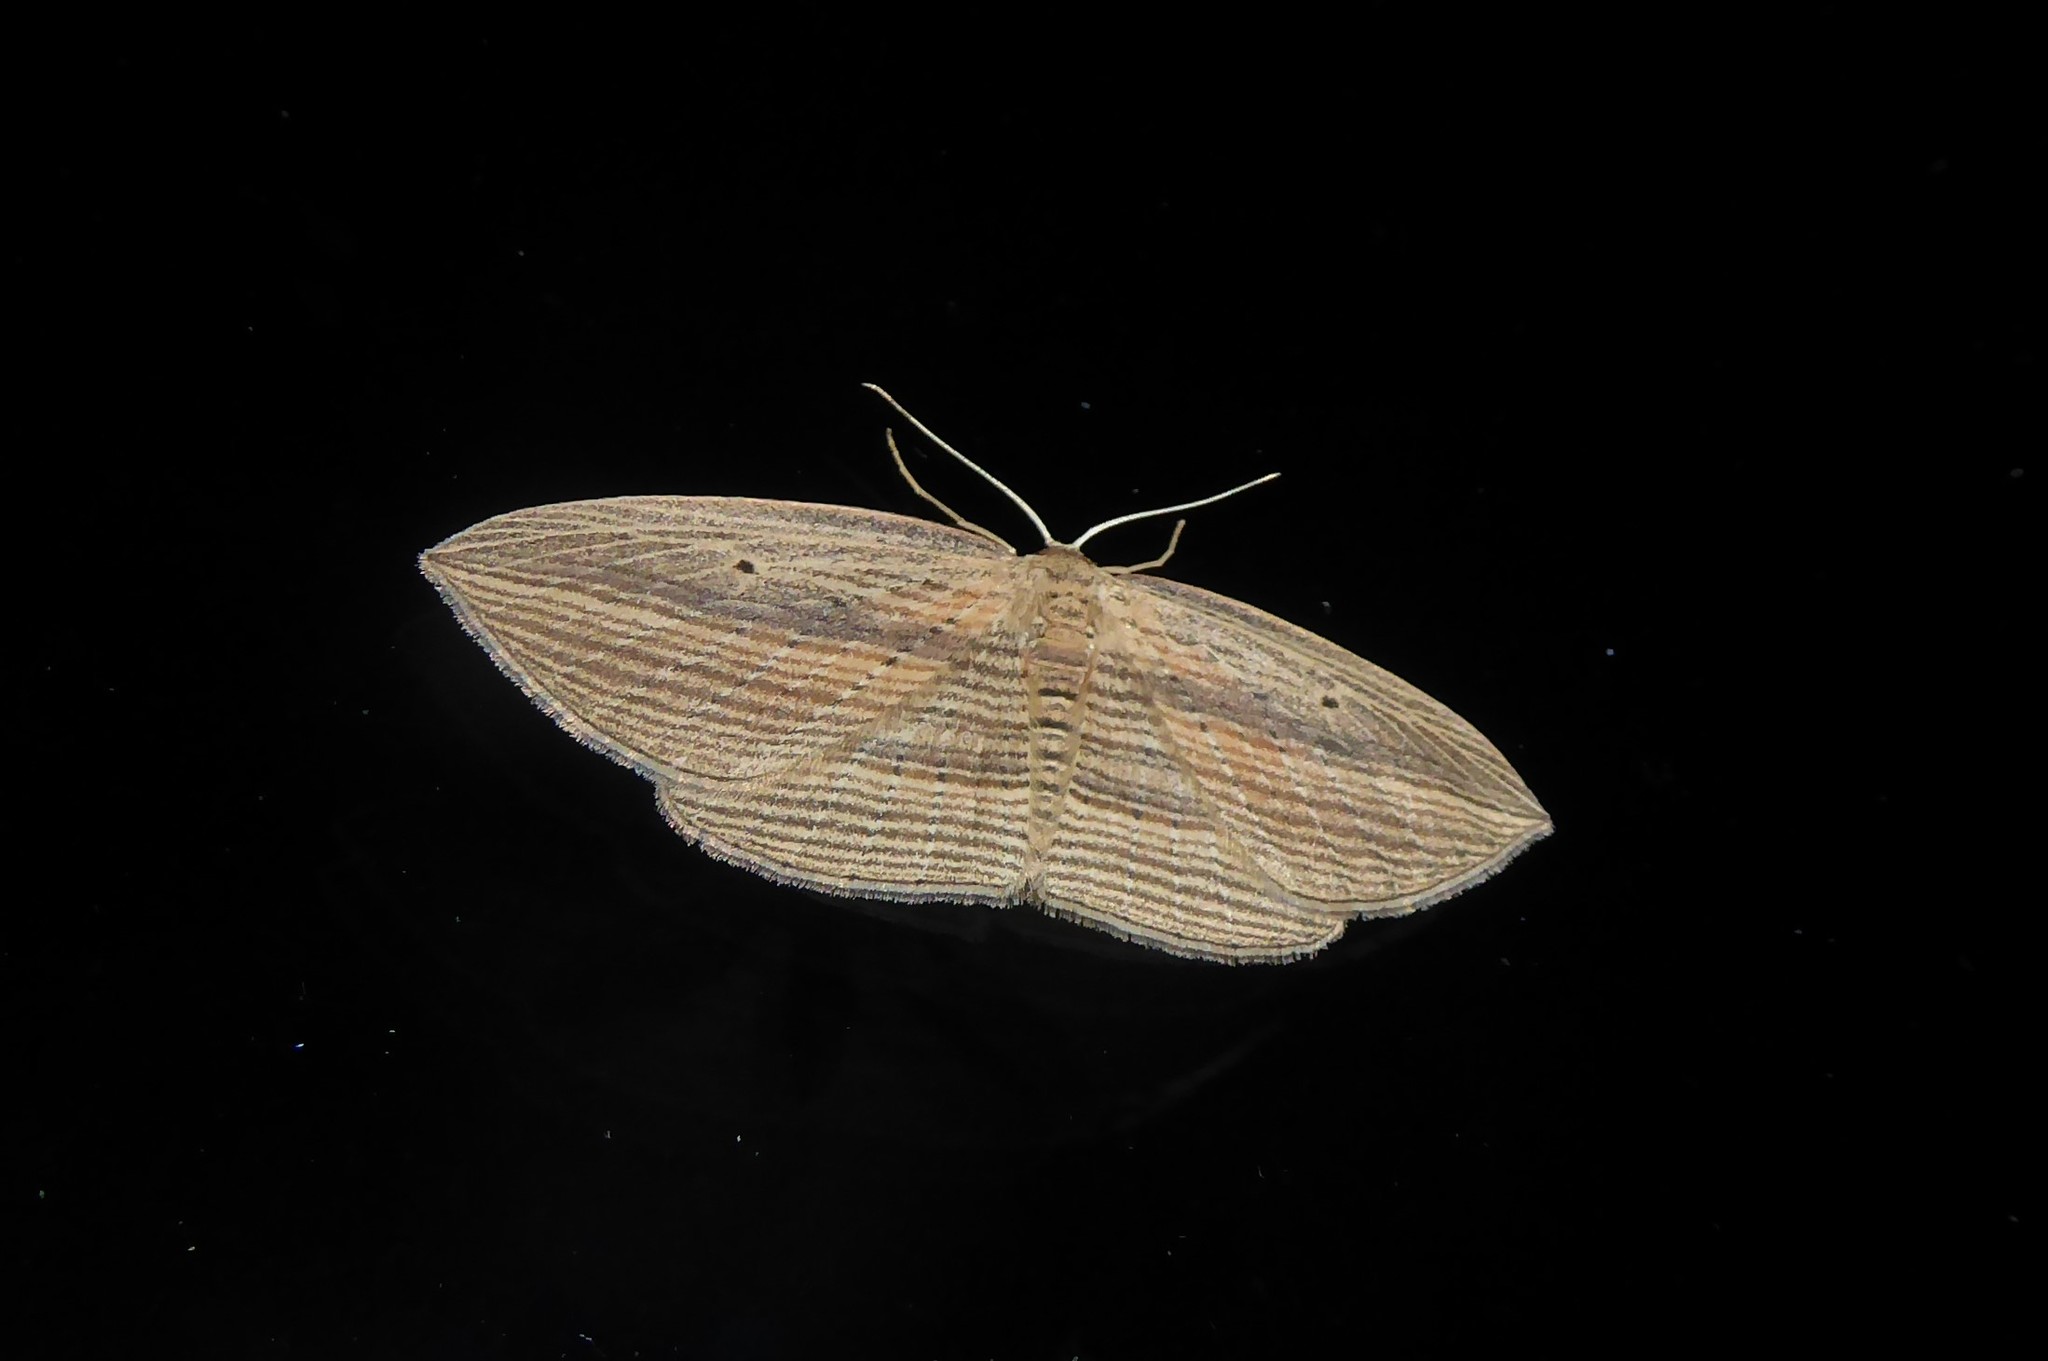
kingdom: Animalia
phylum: Arthropoda
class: Insecta
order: Lepidoptera
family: Geometridae
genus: Epiphryne
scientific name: Epiphryne verriculata
